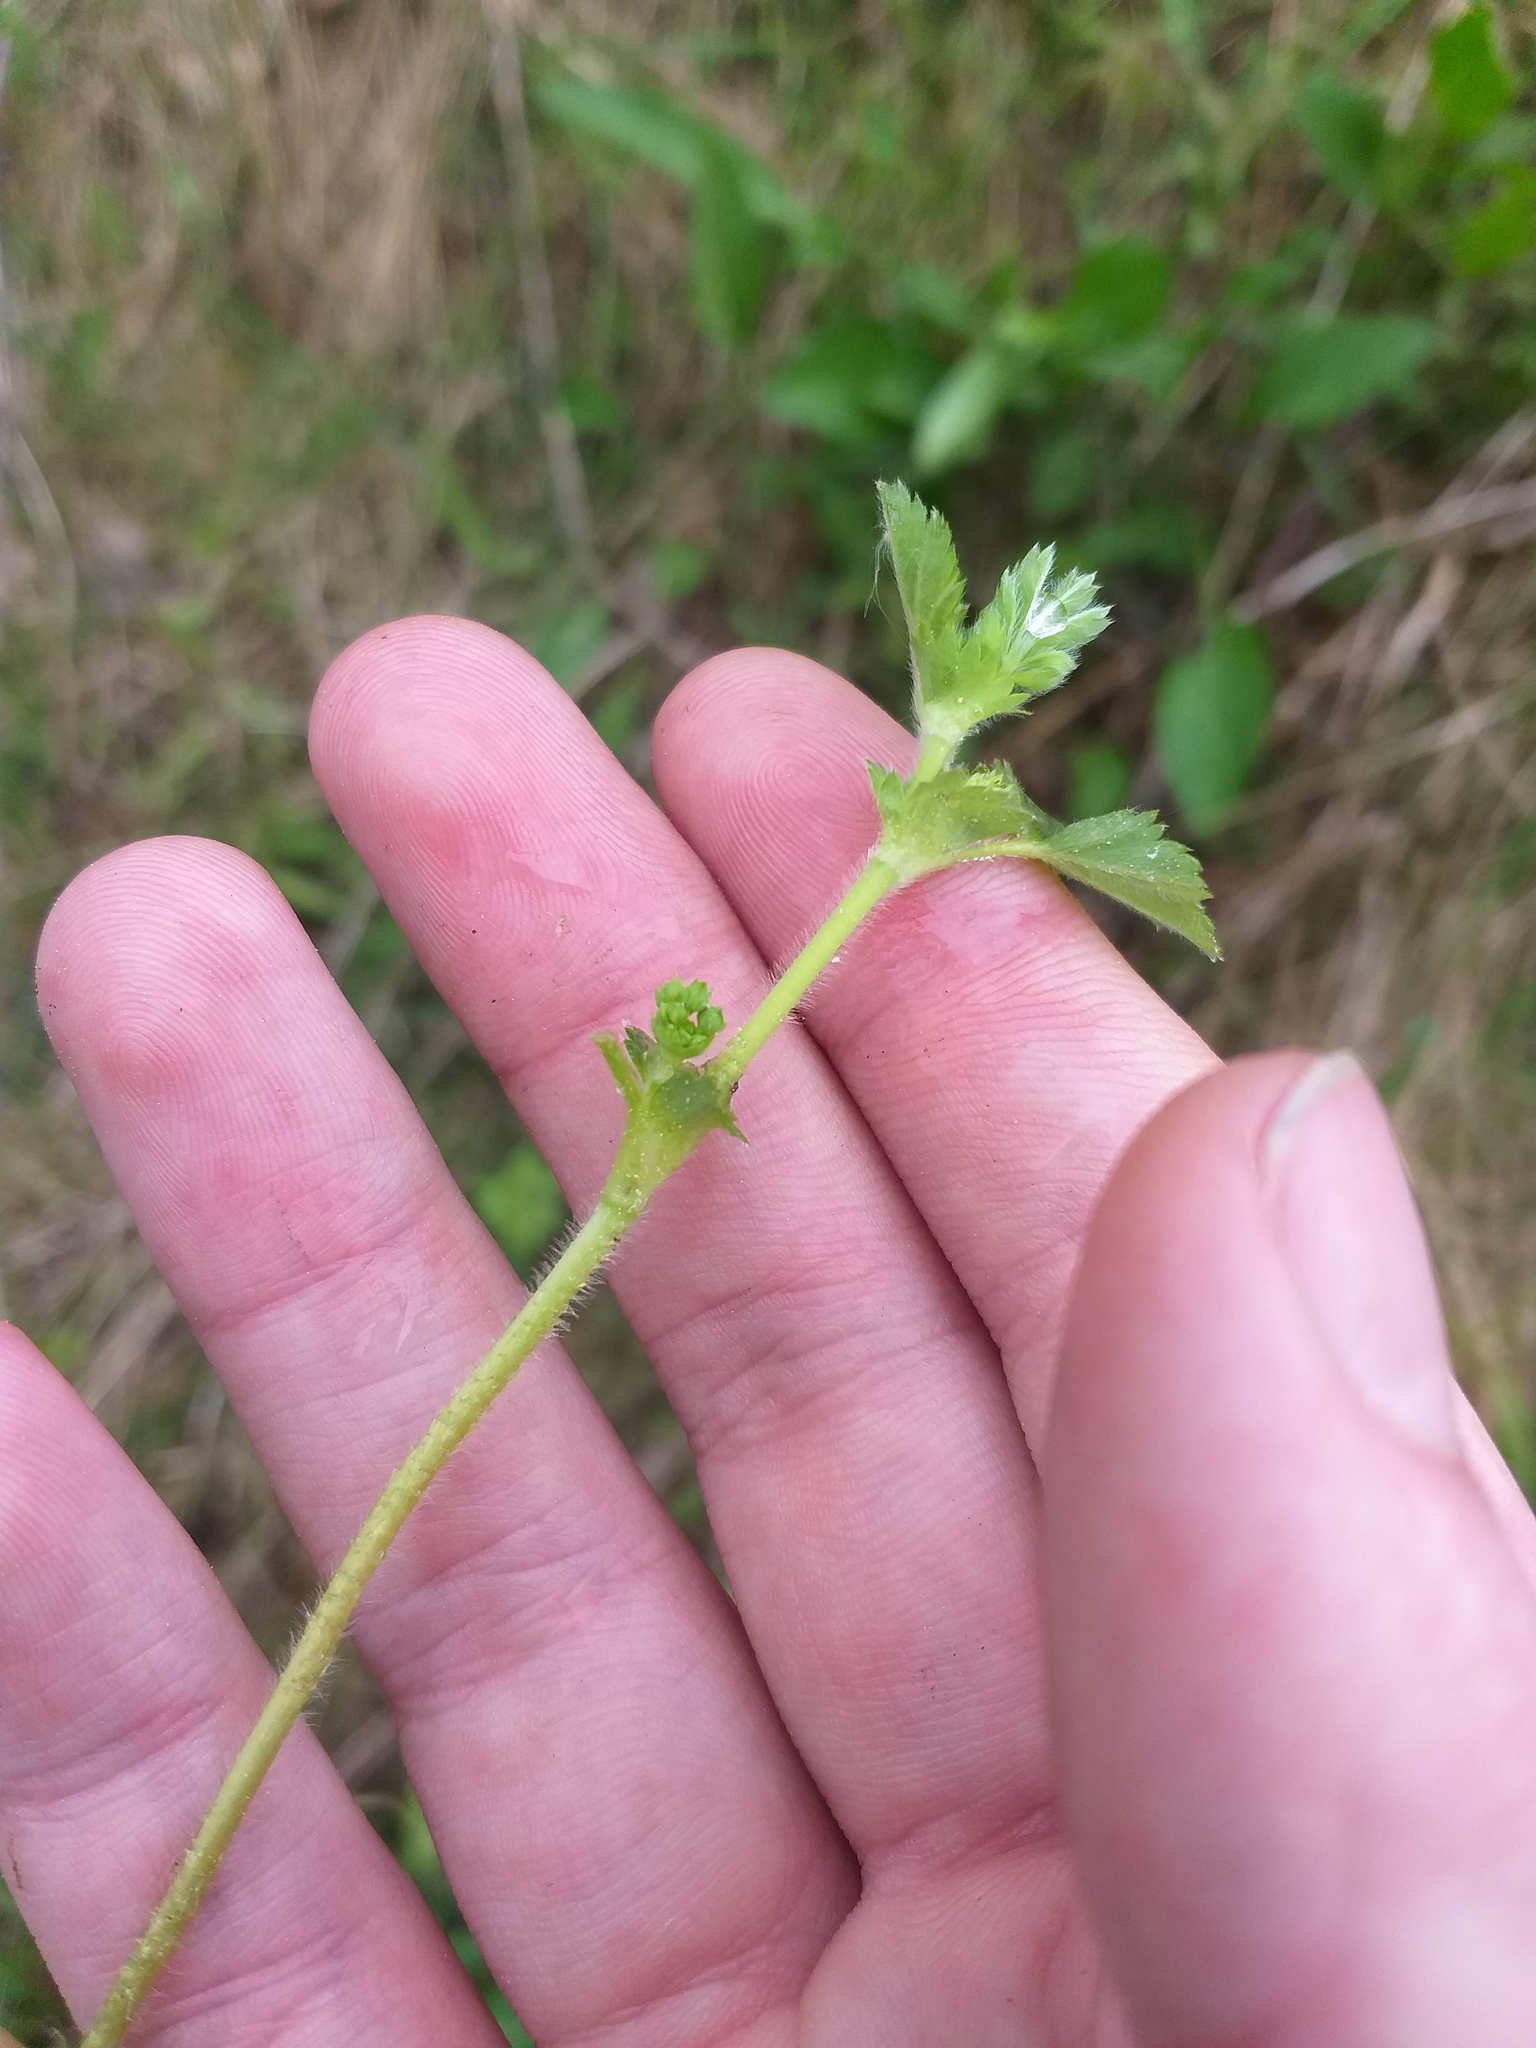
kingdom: Plantae
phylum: Tracheophyta
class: Magnoliopsida
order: Rosales
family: Rosaceae
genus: Alchemilla
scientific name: Alchemilla lindbergiana
